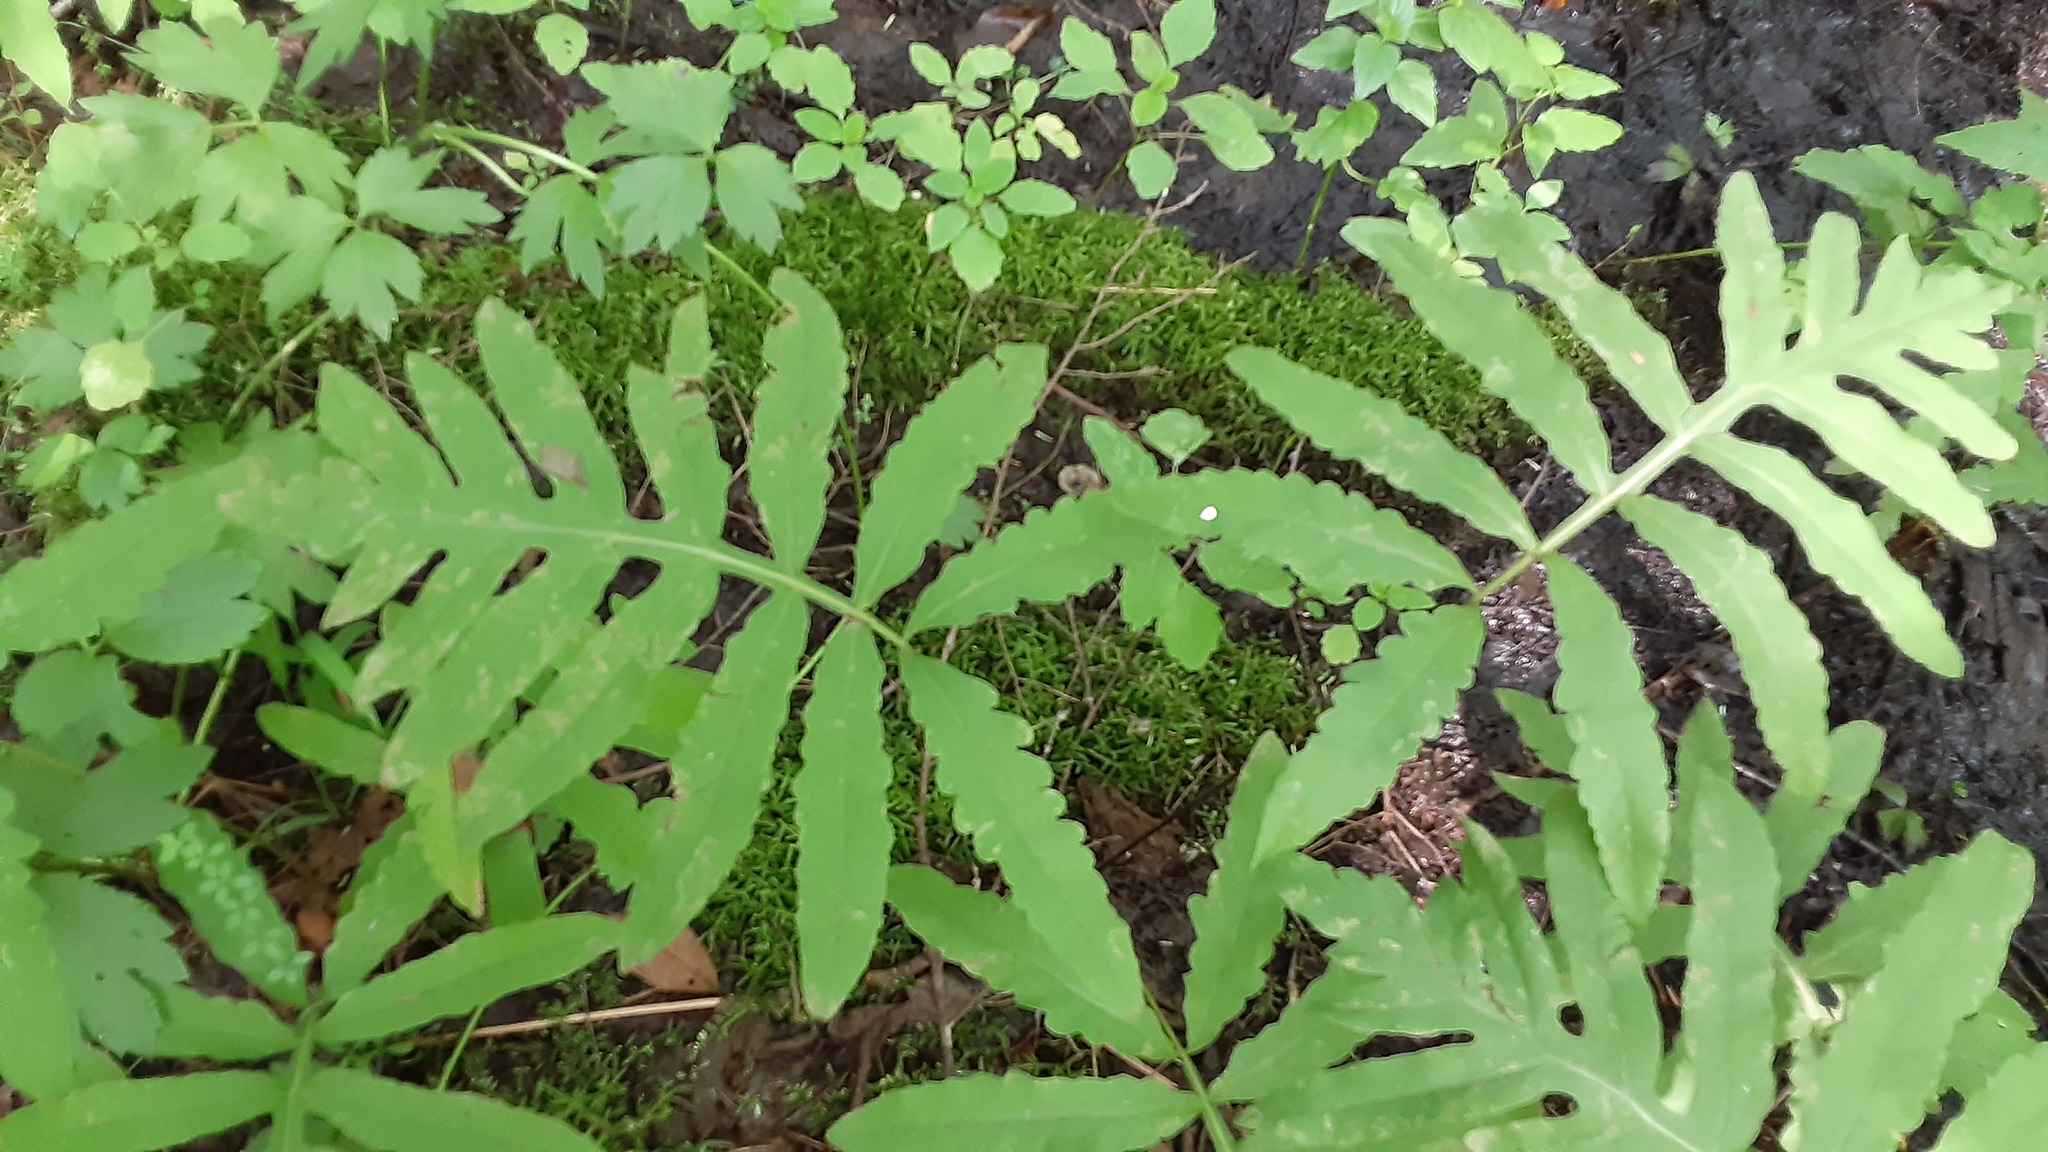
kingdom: Plantae
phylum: Tracheophyta
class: Polypodiopsida
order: Polypodiales
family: Onocleaceae
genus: Onoclea
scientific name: Onoclea sensibilis
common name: Sensitive fern
